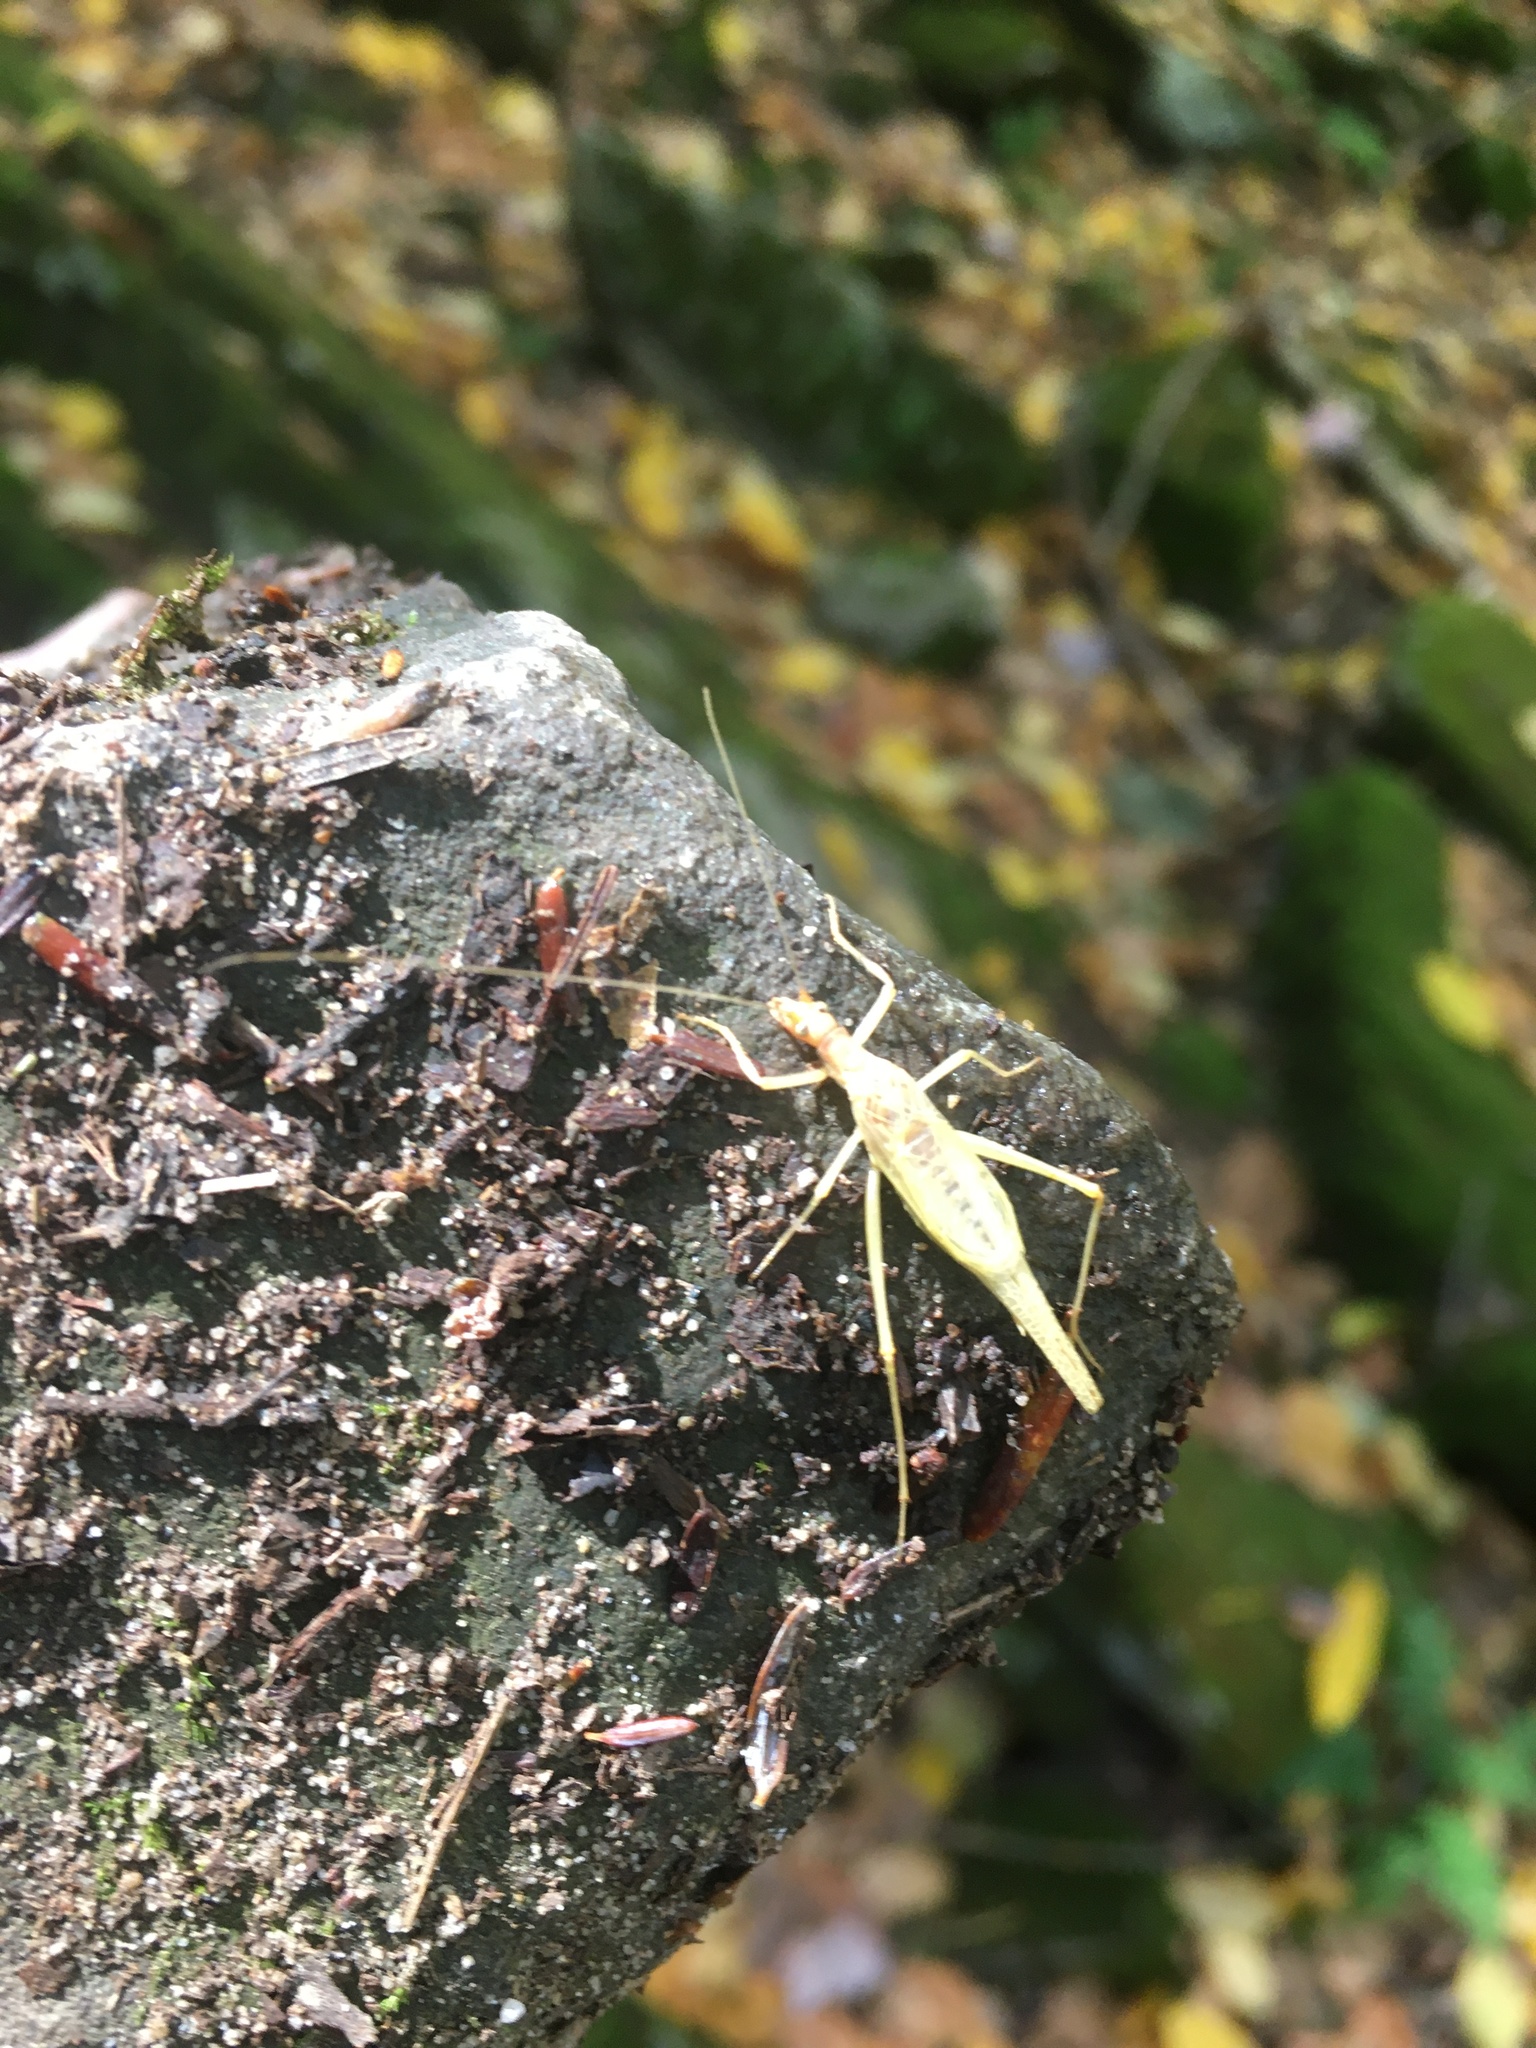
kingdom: Animalia
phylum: Arthropoda
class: Insecta
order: Orthoptera
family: Gryllidae
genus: Neoxabea
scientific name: Neoxabea bipunctata
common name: Two-spotted tree cricket
